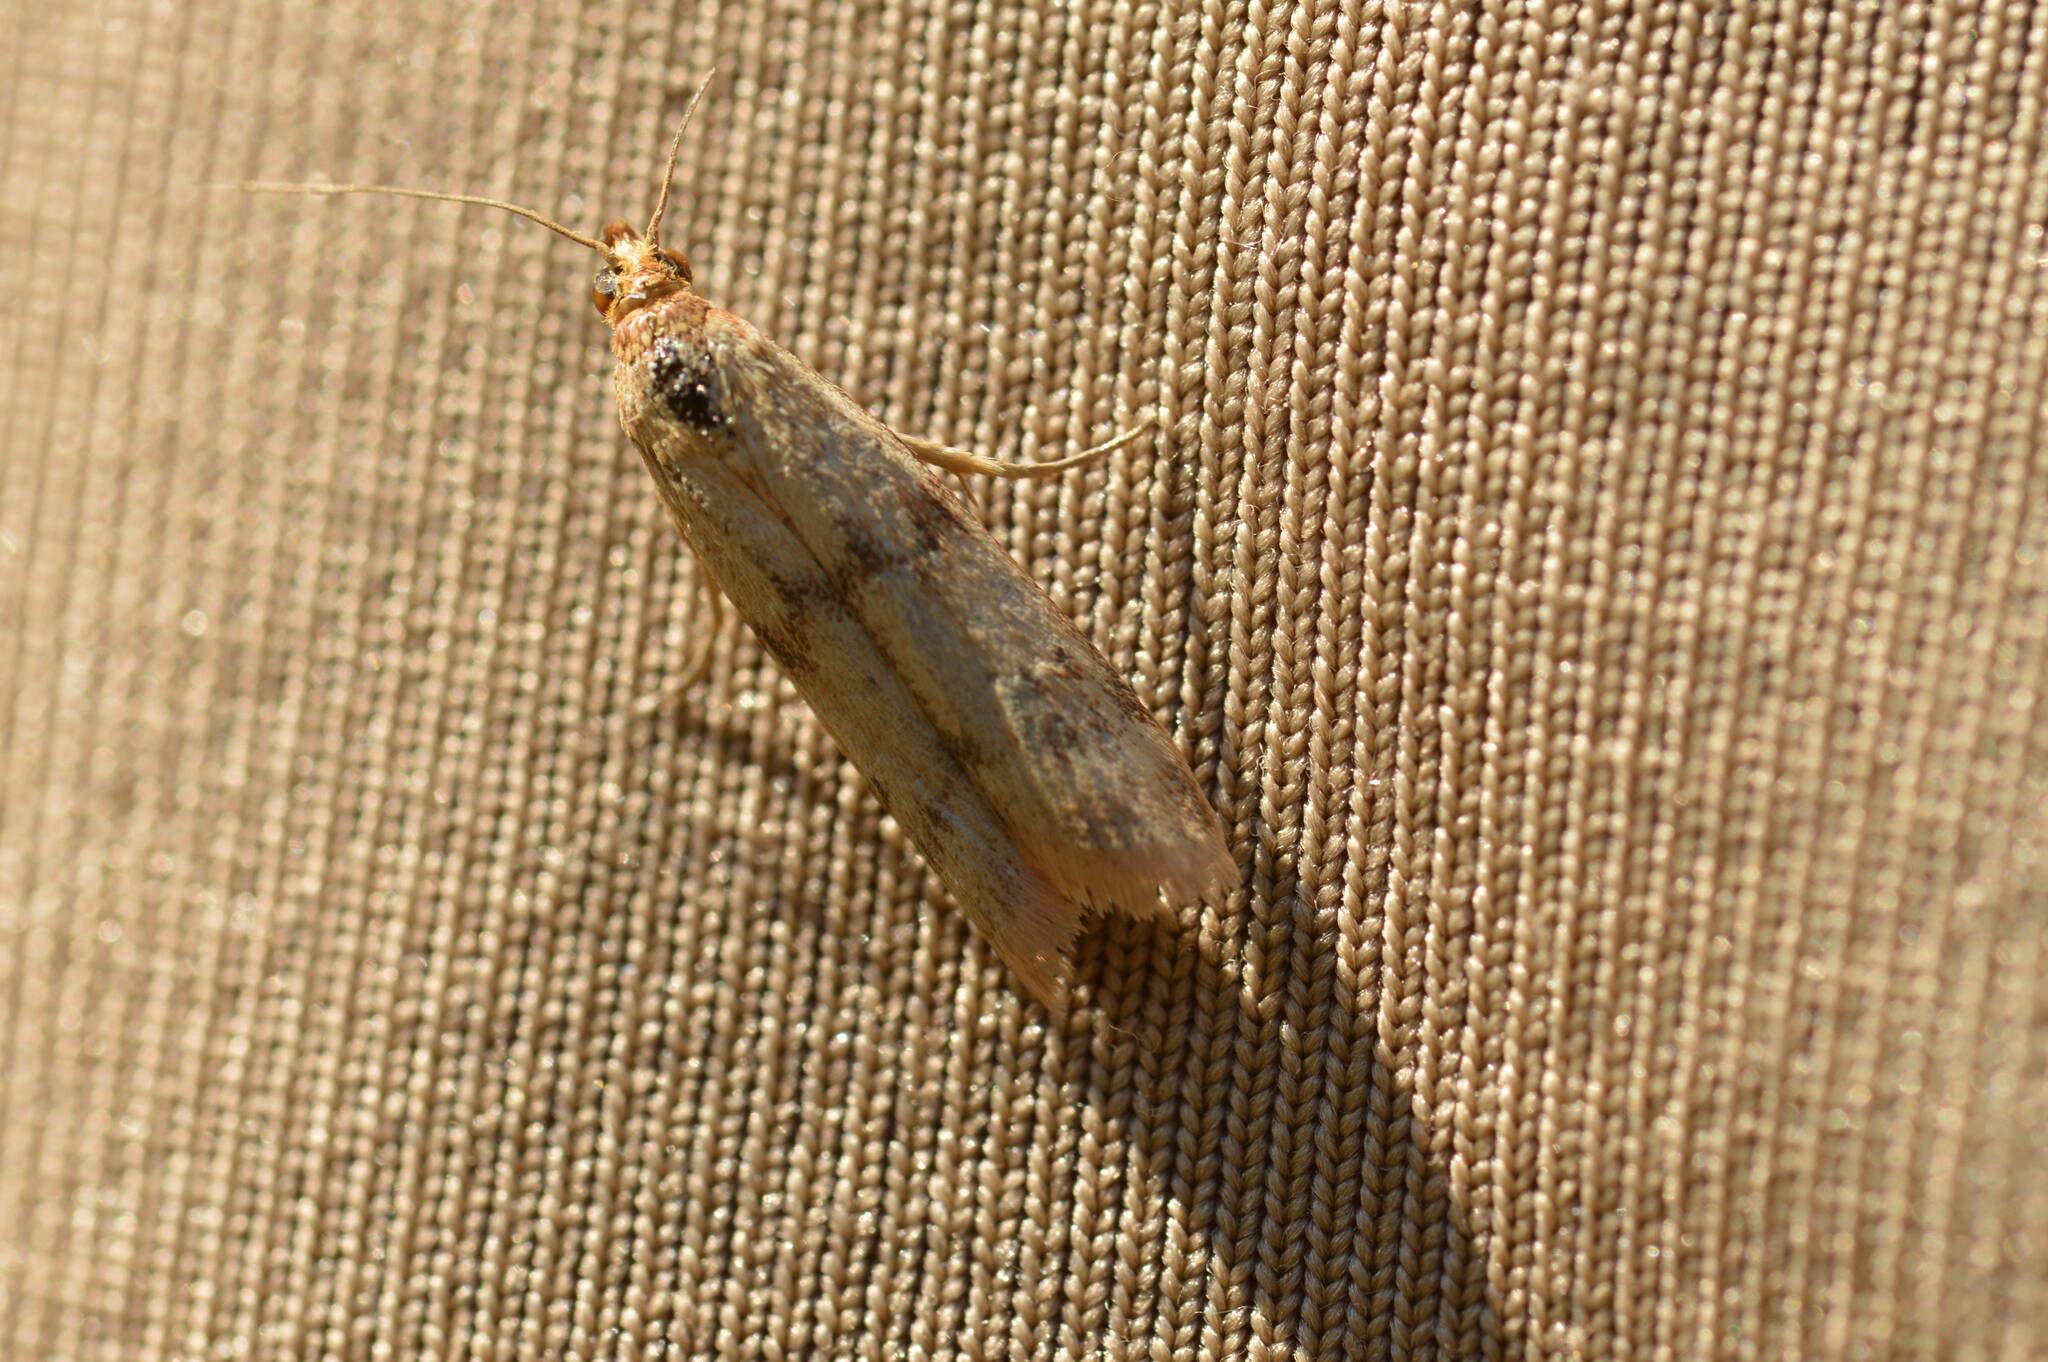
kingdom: Animalia
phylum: Arthropoda
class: Insecta
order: Lepidoptera
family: Pyralidae
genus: Homoeosoma
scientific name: Homoeosoma sinuella
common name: Twin-barred knot-horn
